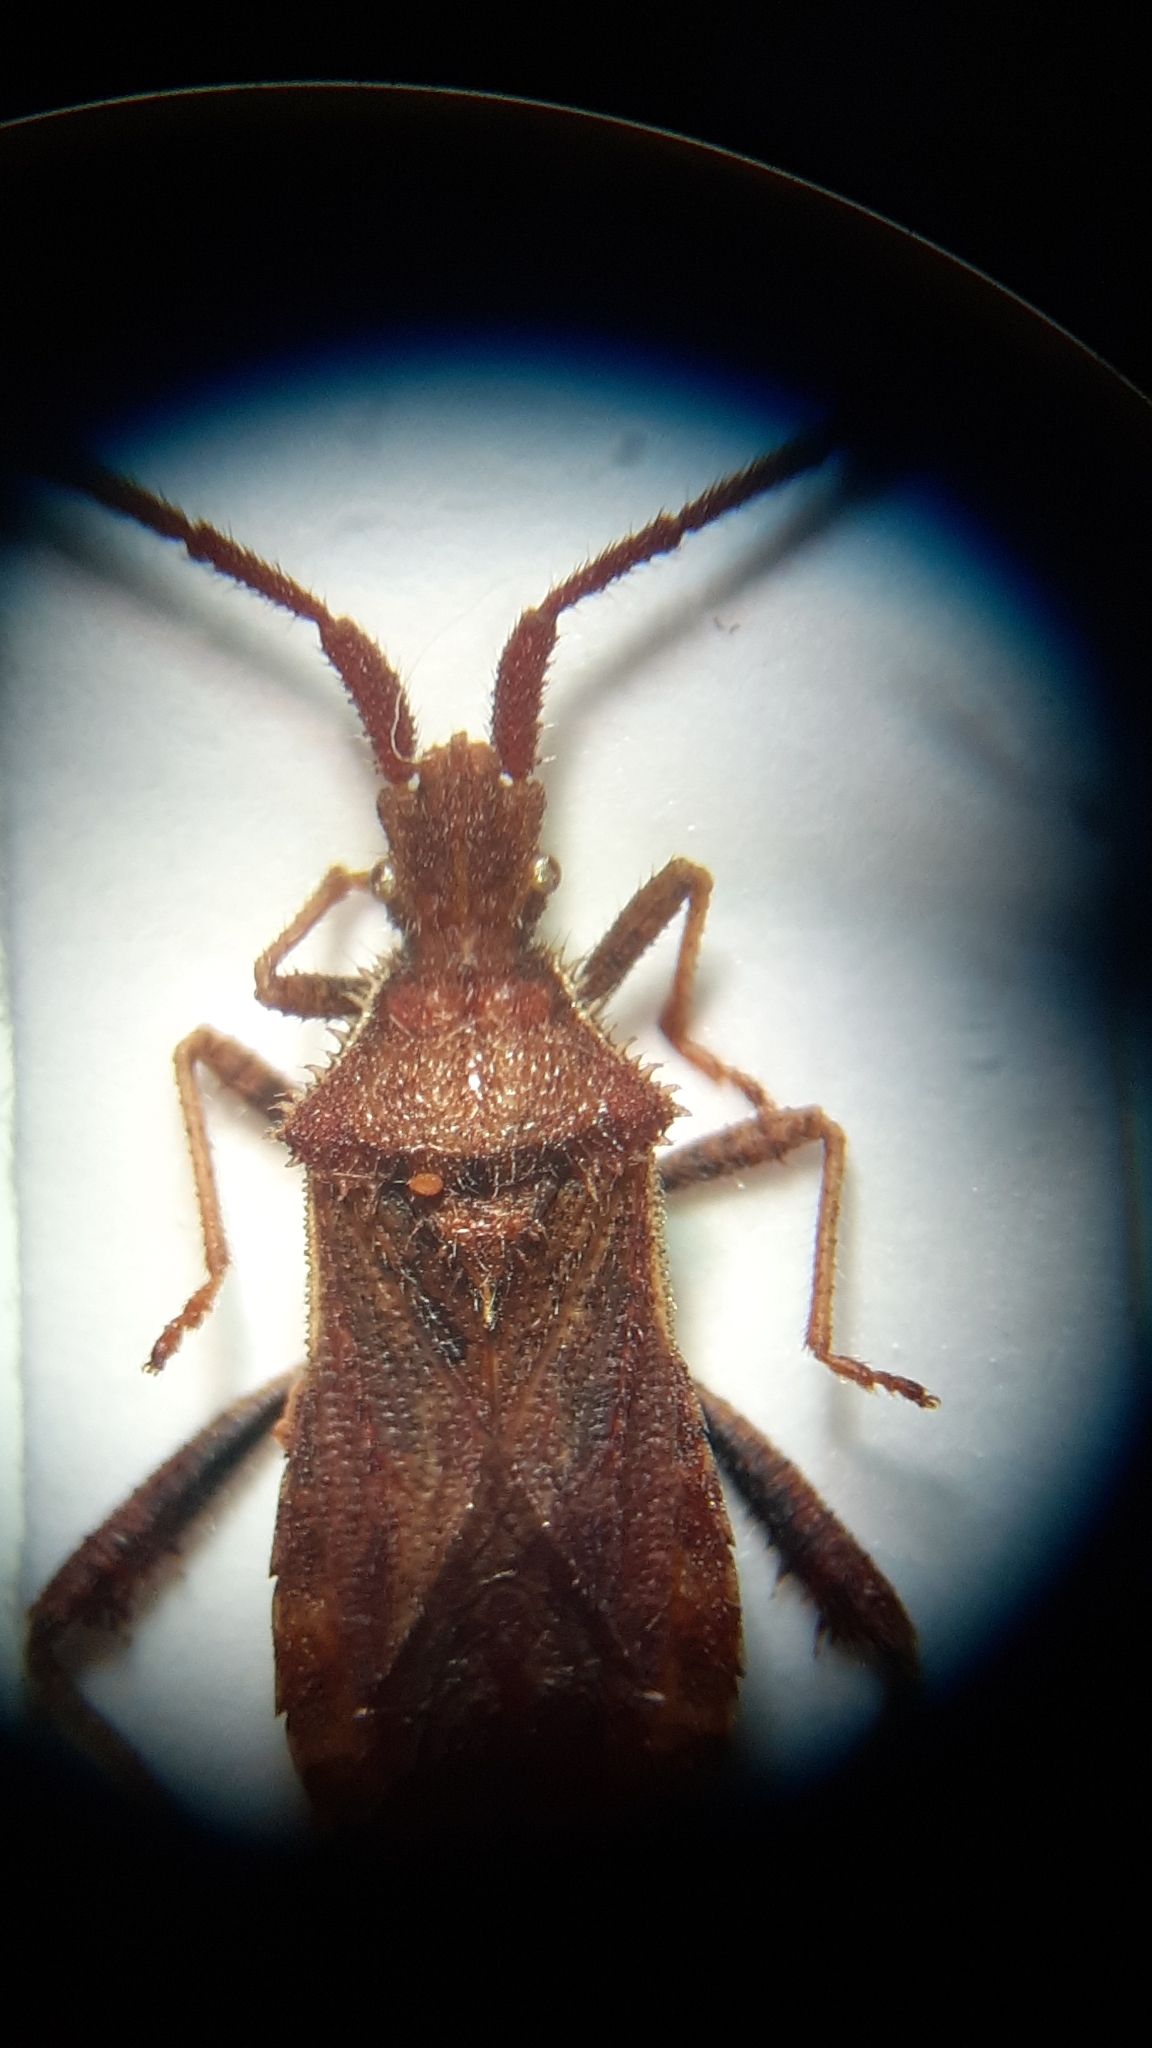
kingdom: Animalia
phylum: Arthropoda
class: Insecta
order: Hemiptera
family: Coreidae
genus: Coriomeris
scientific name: Coriomeris denticulatus
